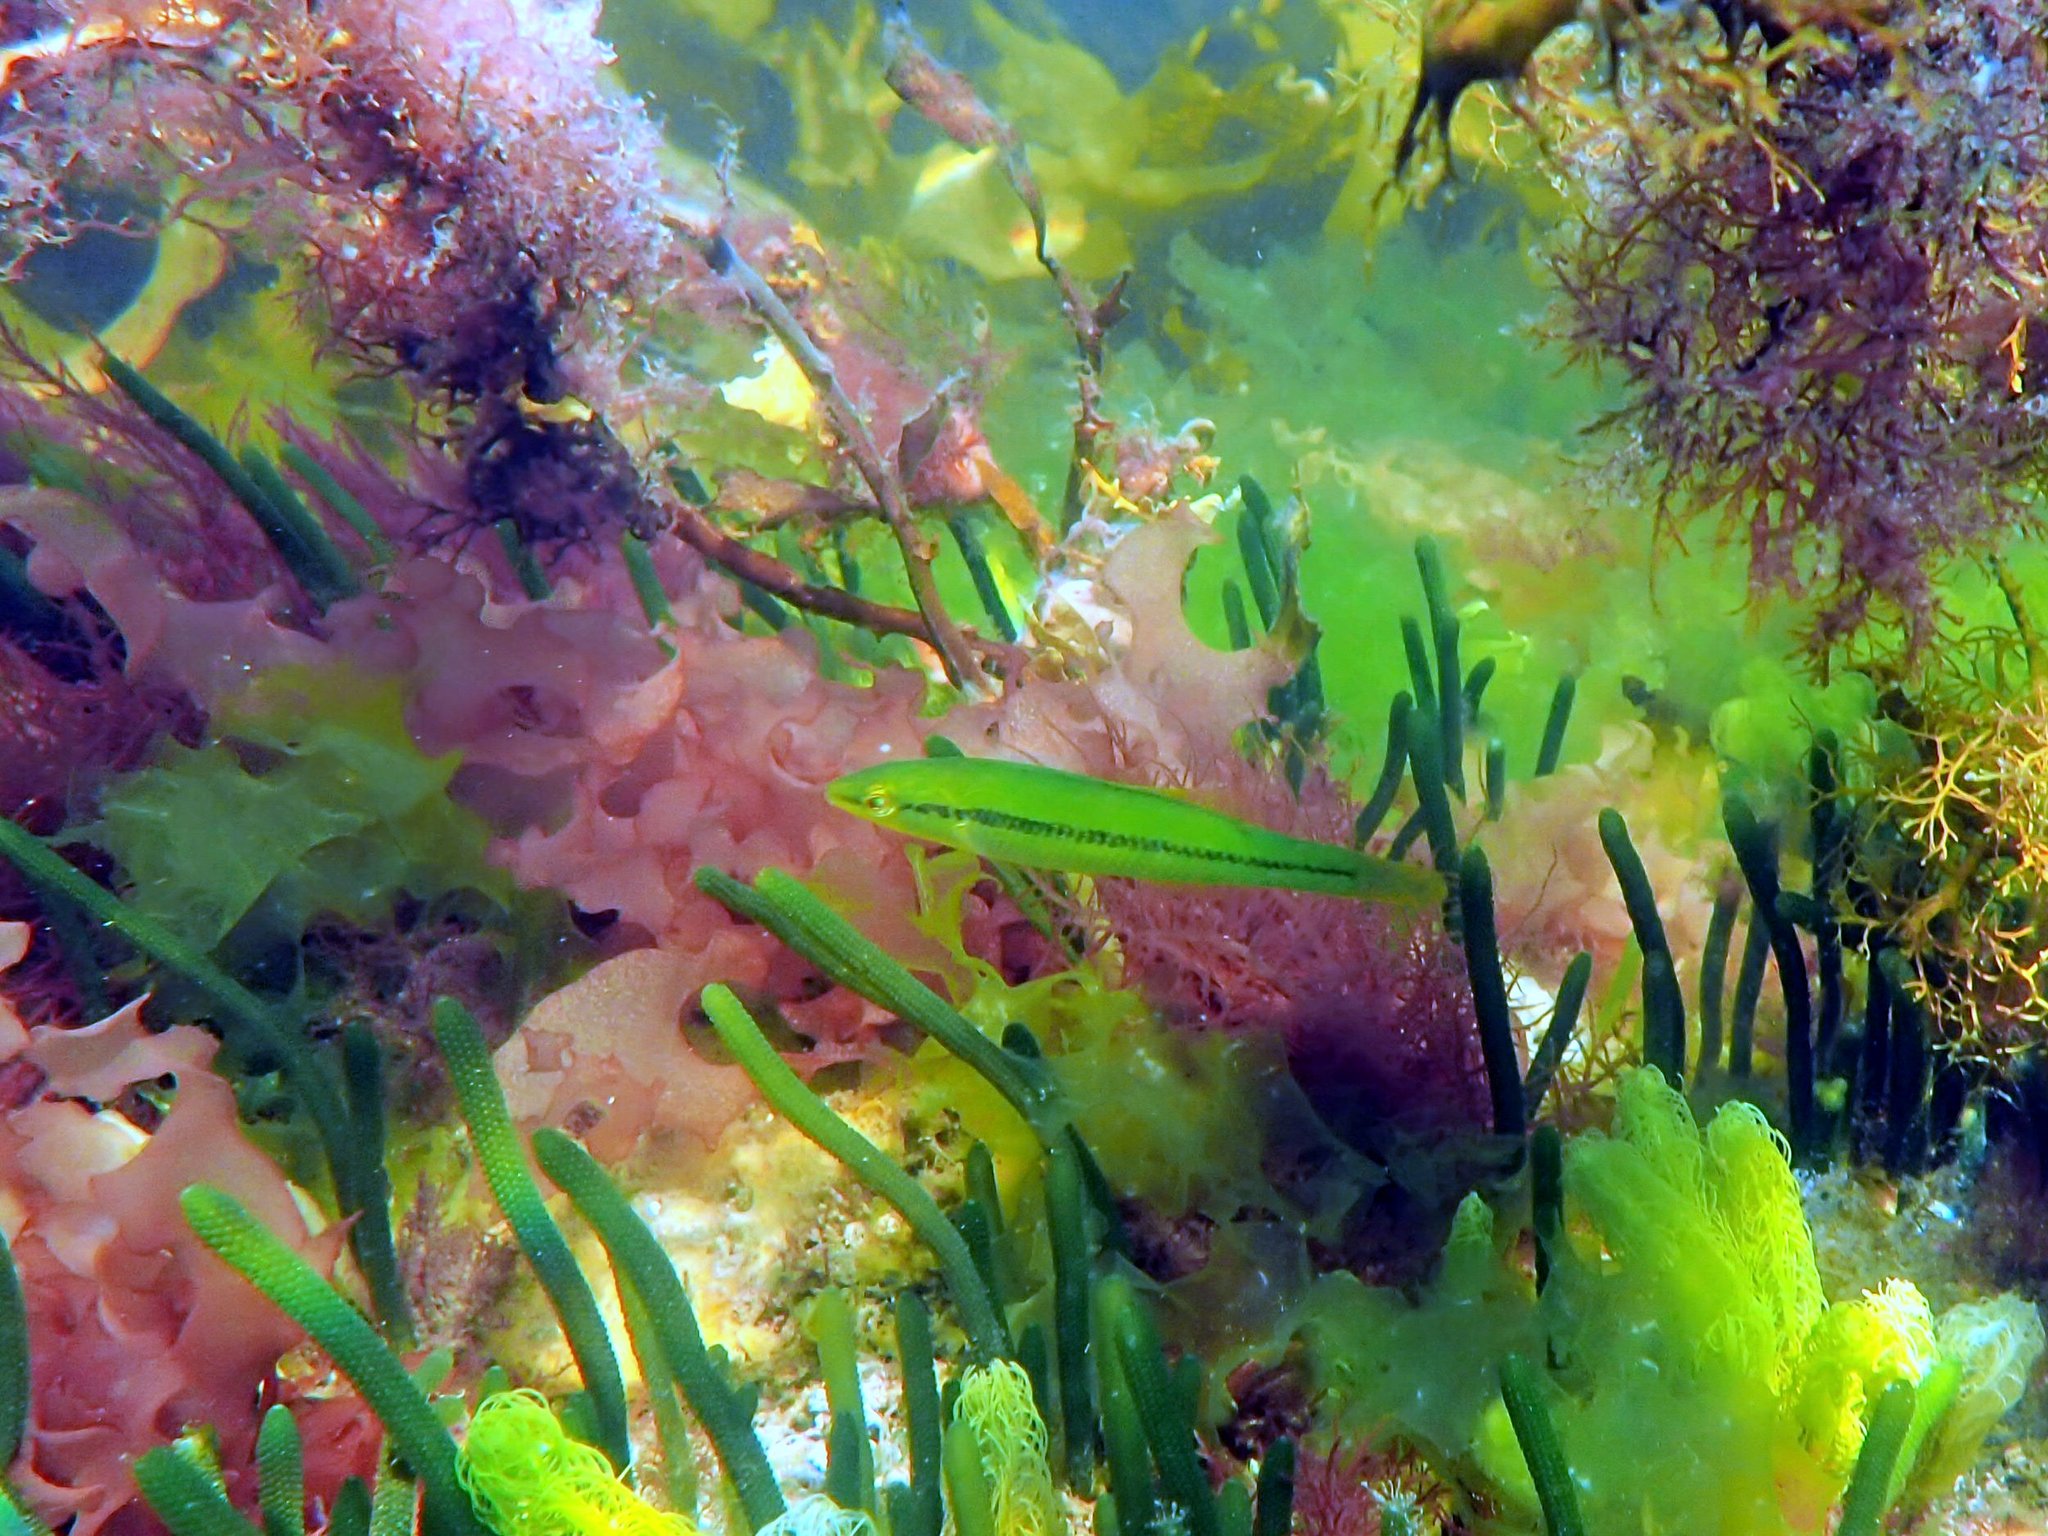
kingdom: Animalia
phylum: Chordata
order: Perciformes
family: Odacidae
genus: Neoodax
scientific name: Neoodax balteatus
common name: Ground mullet
